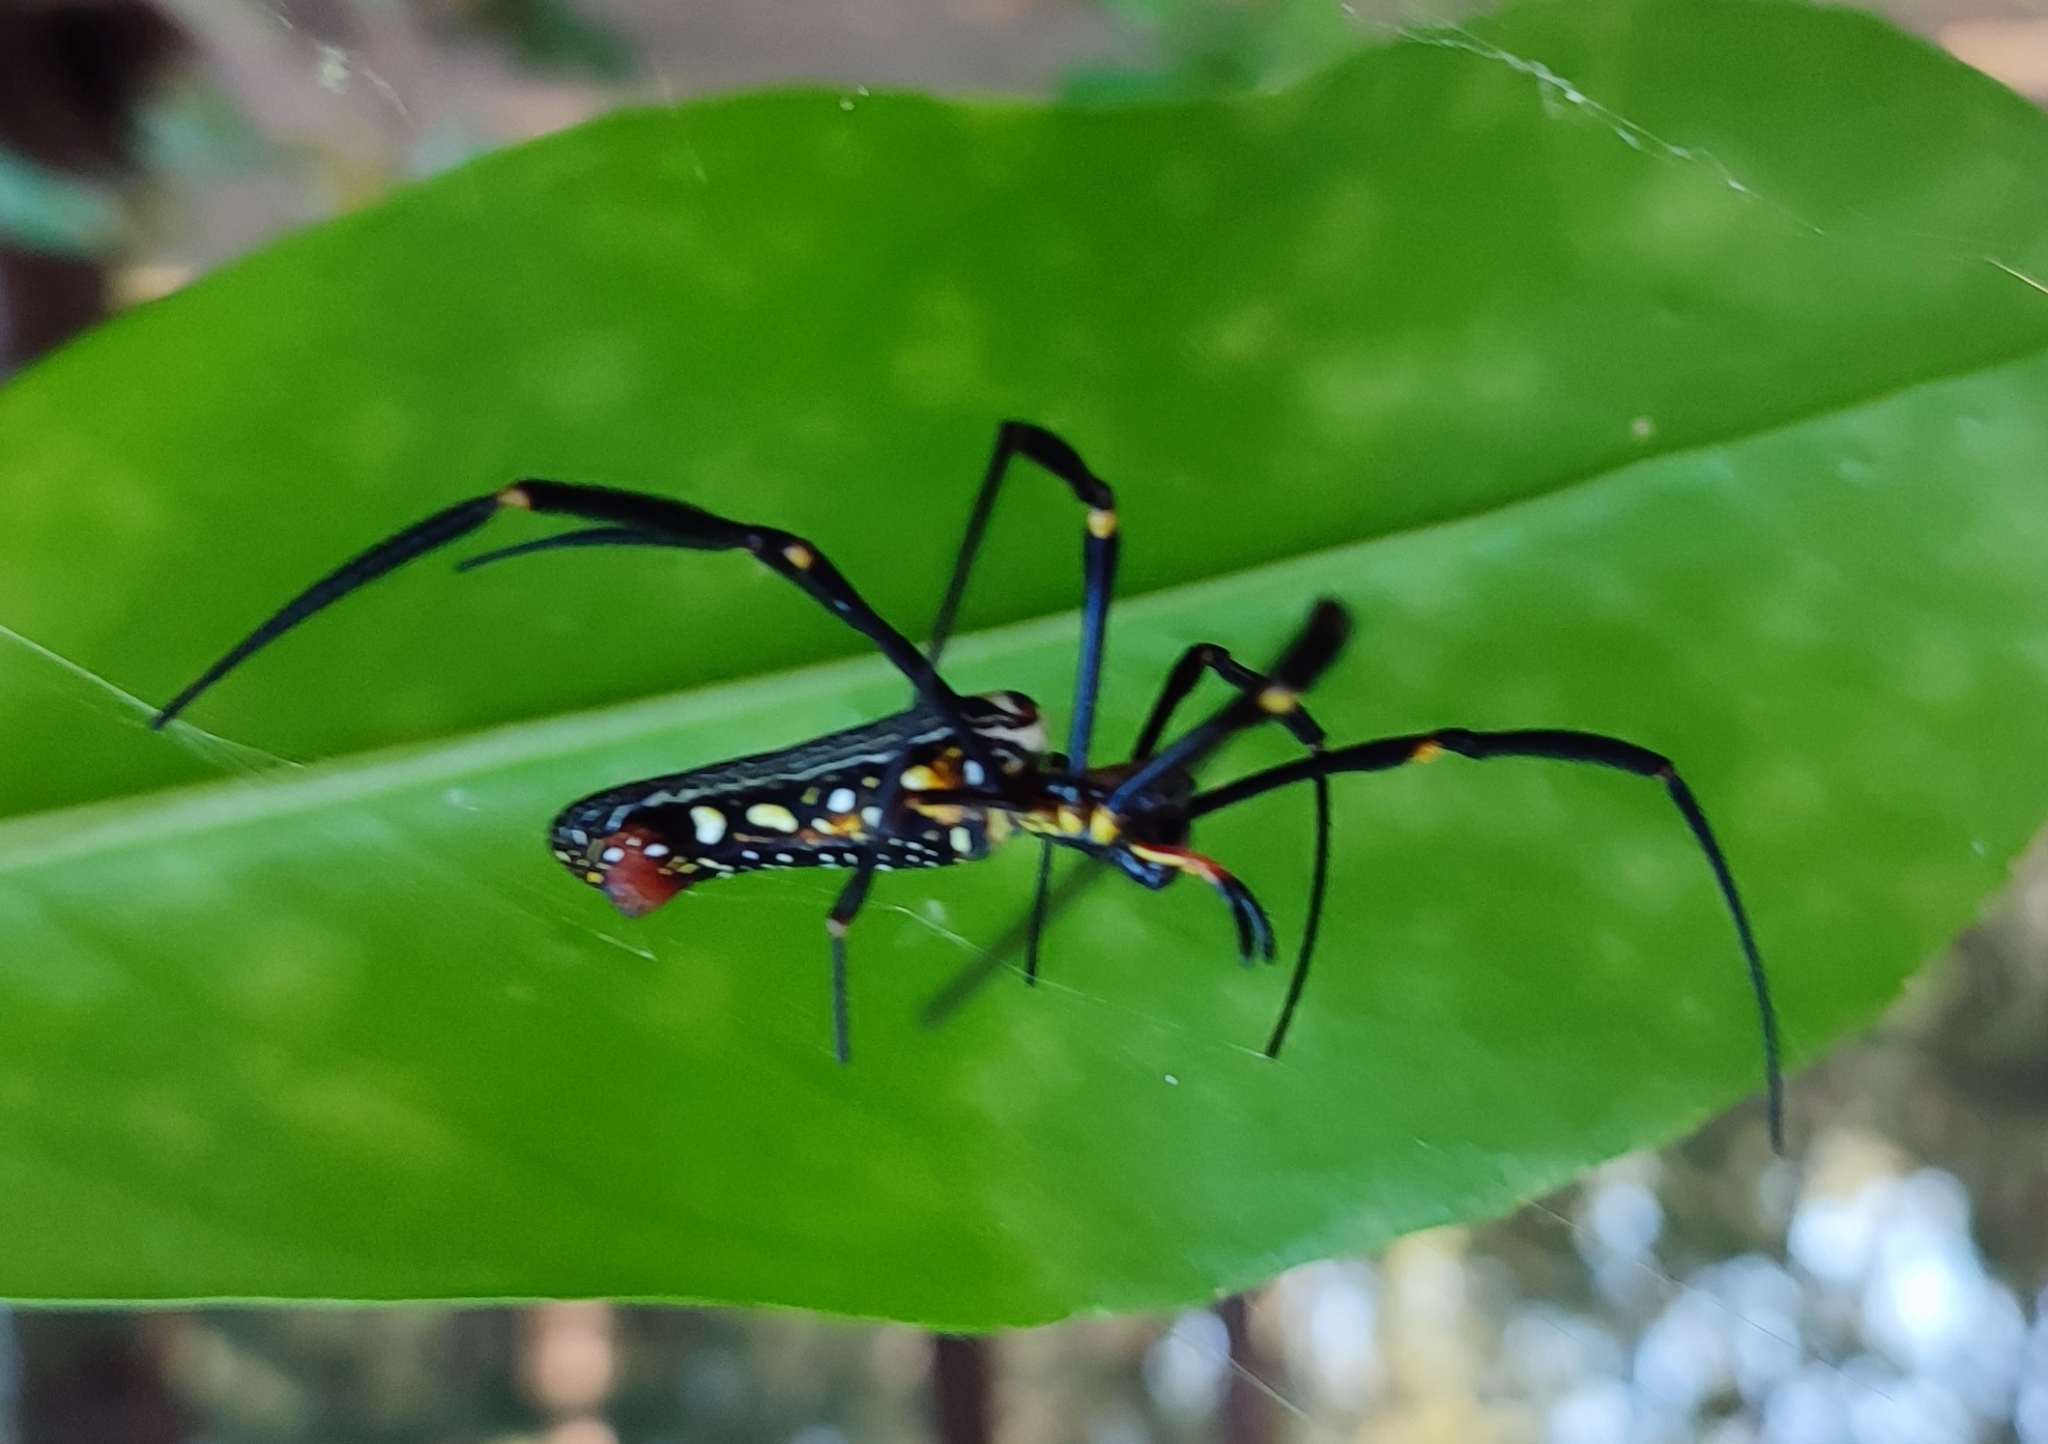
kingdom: Animalia
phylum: Arthropoda
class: Arachnida
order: Araneae
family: Araneidae
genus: Nephila
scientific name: Nephila pilipes
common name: Giant golden orb weaver
